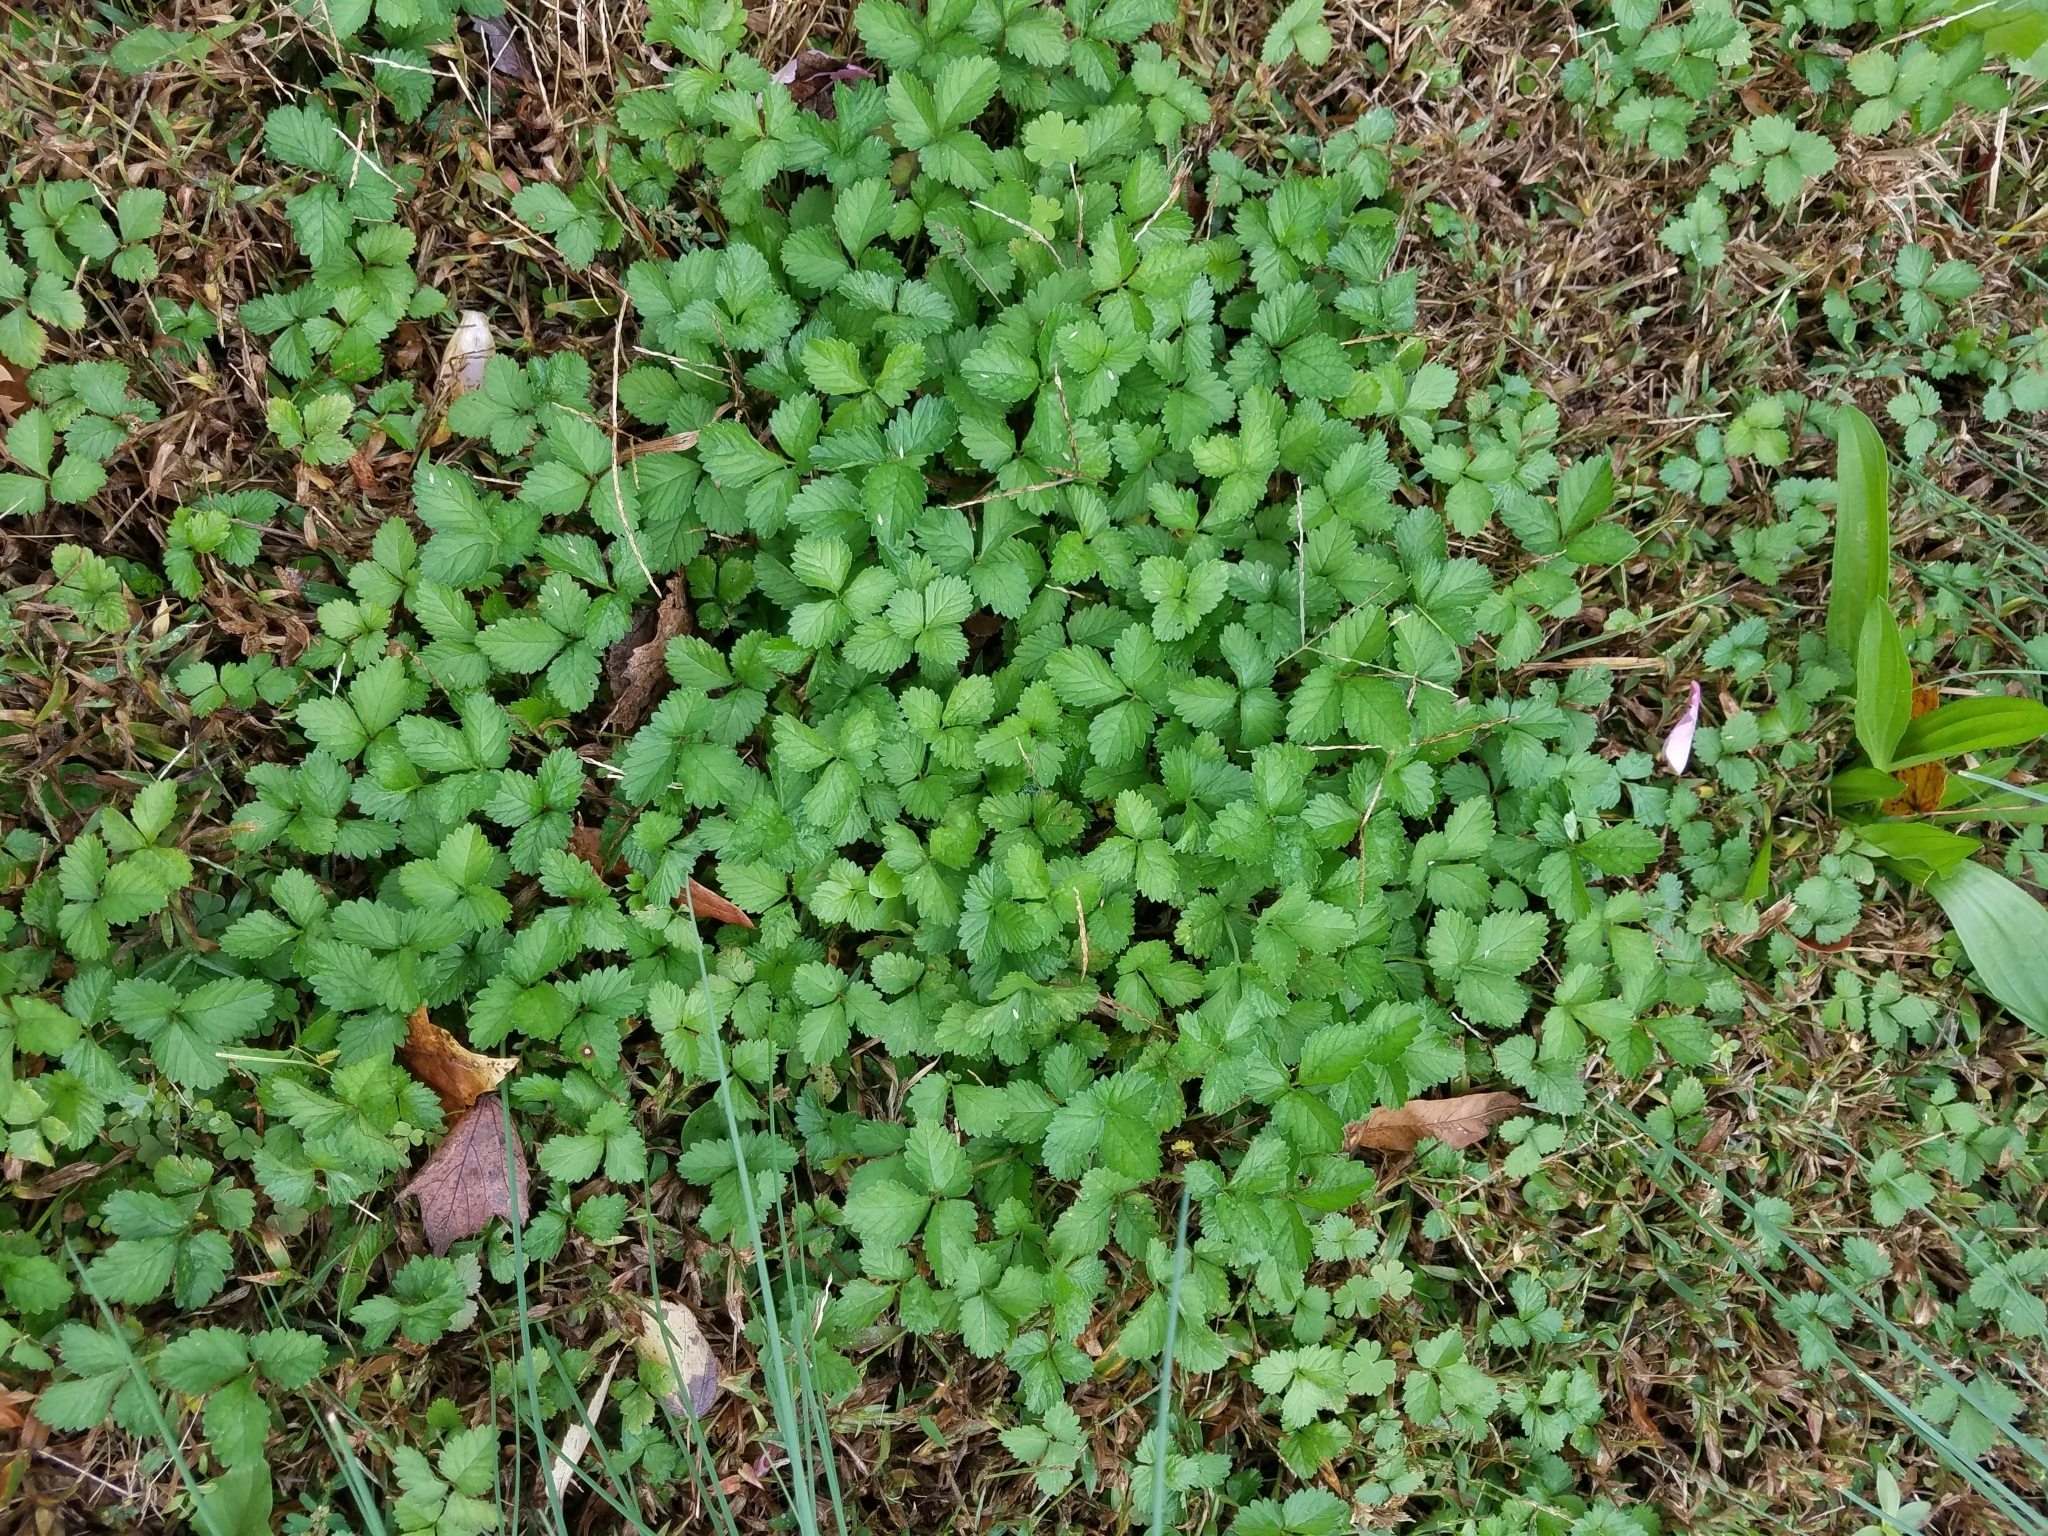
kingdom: Plantae
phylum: Tracheophyta
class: Magnoliopsida
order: Rosales
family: Rosaceae
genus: Potentilla
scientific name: Potentilla indica
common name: Yellow-flowered strawberry
